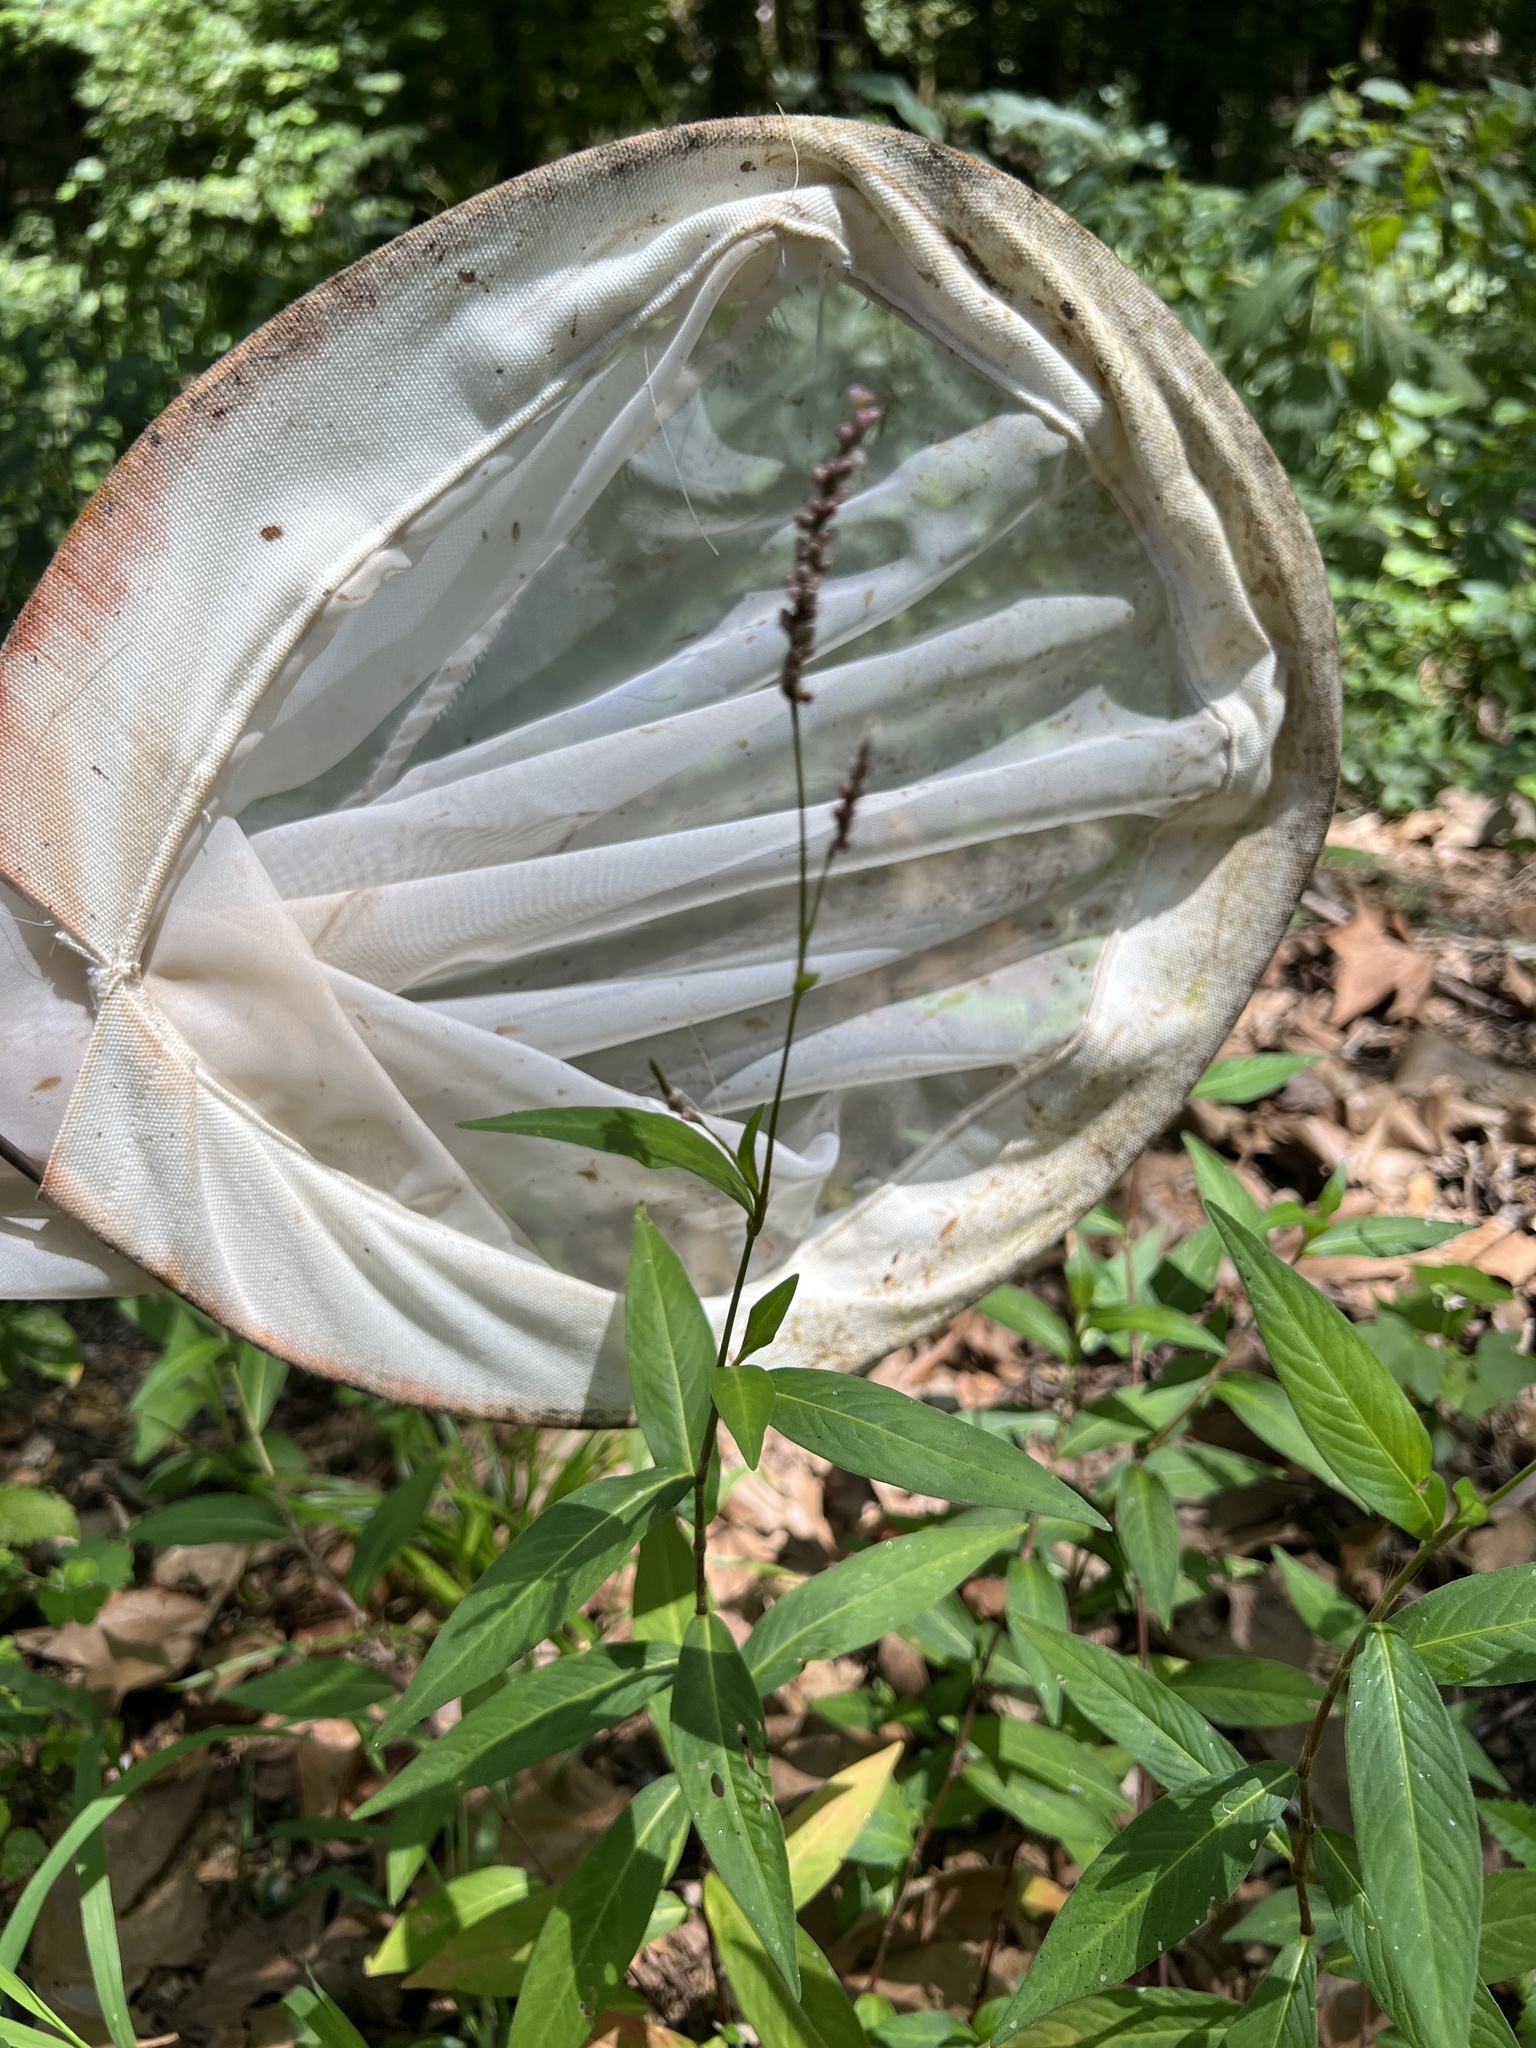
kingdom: Plantae
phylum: Tracheophyta
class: Magnoliopsida
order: Caryophyllales
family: Polygonaceae
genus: Persicaria
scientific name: Persicaria longiseta
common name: Bristly lady's-thumb
